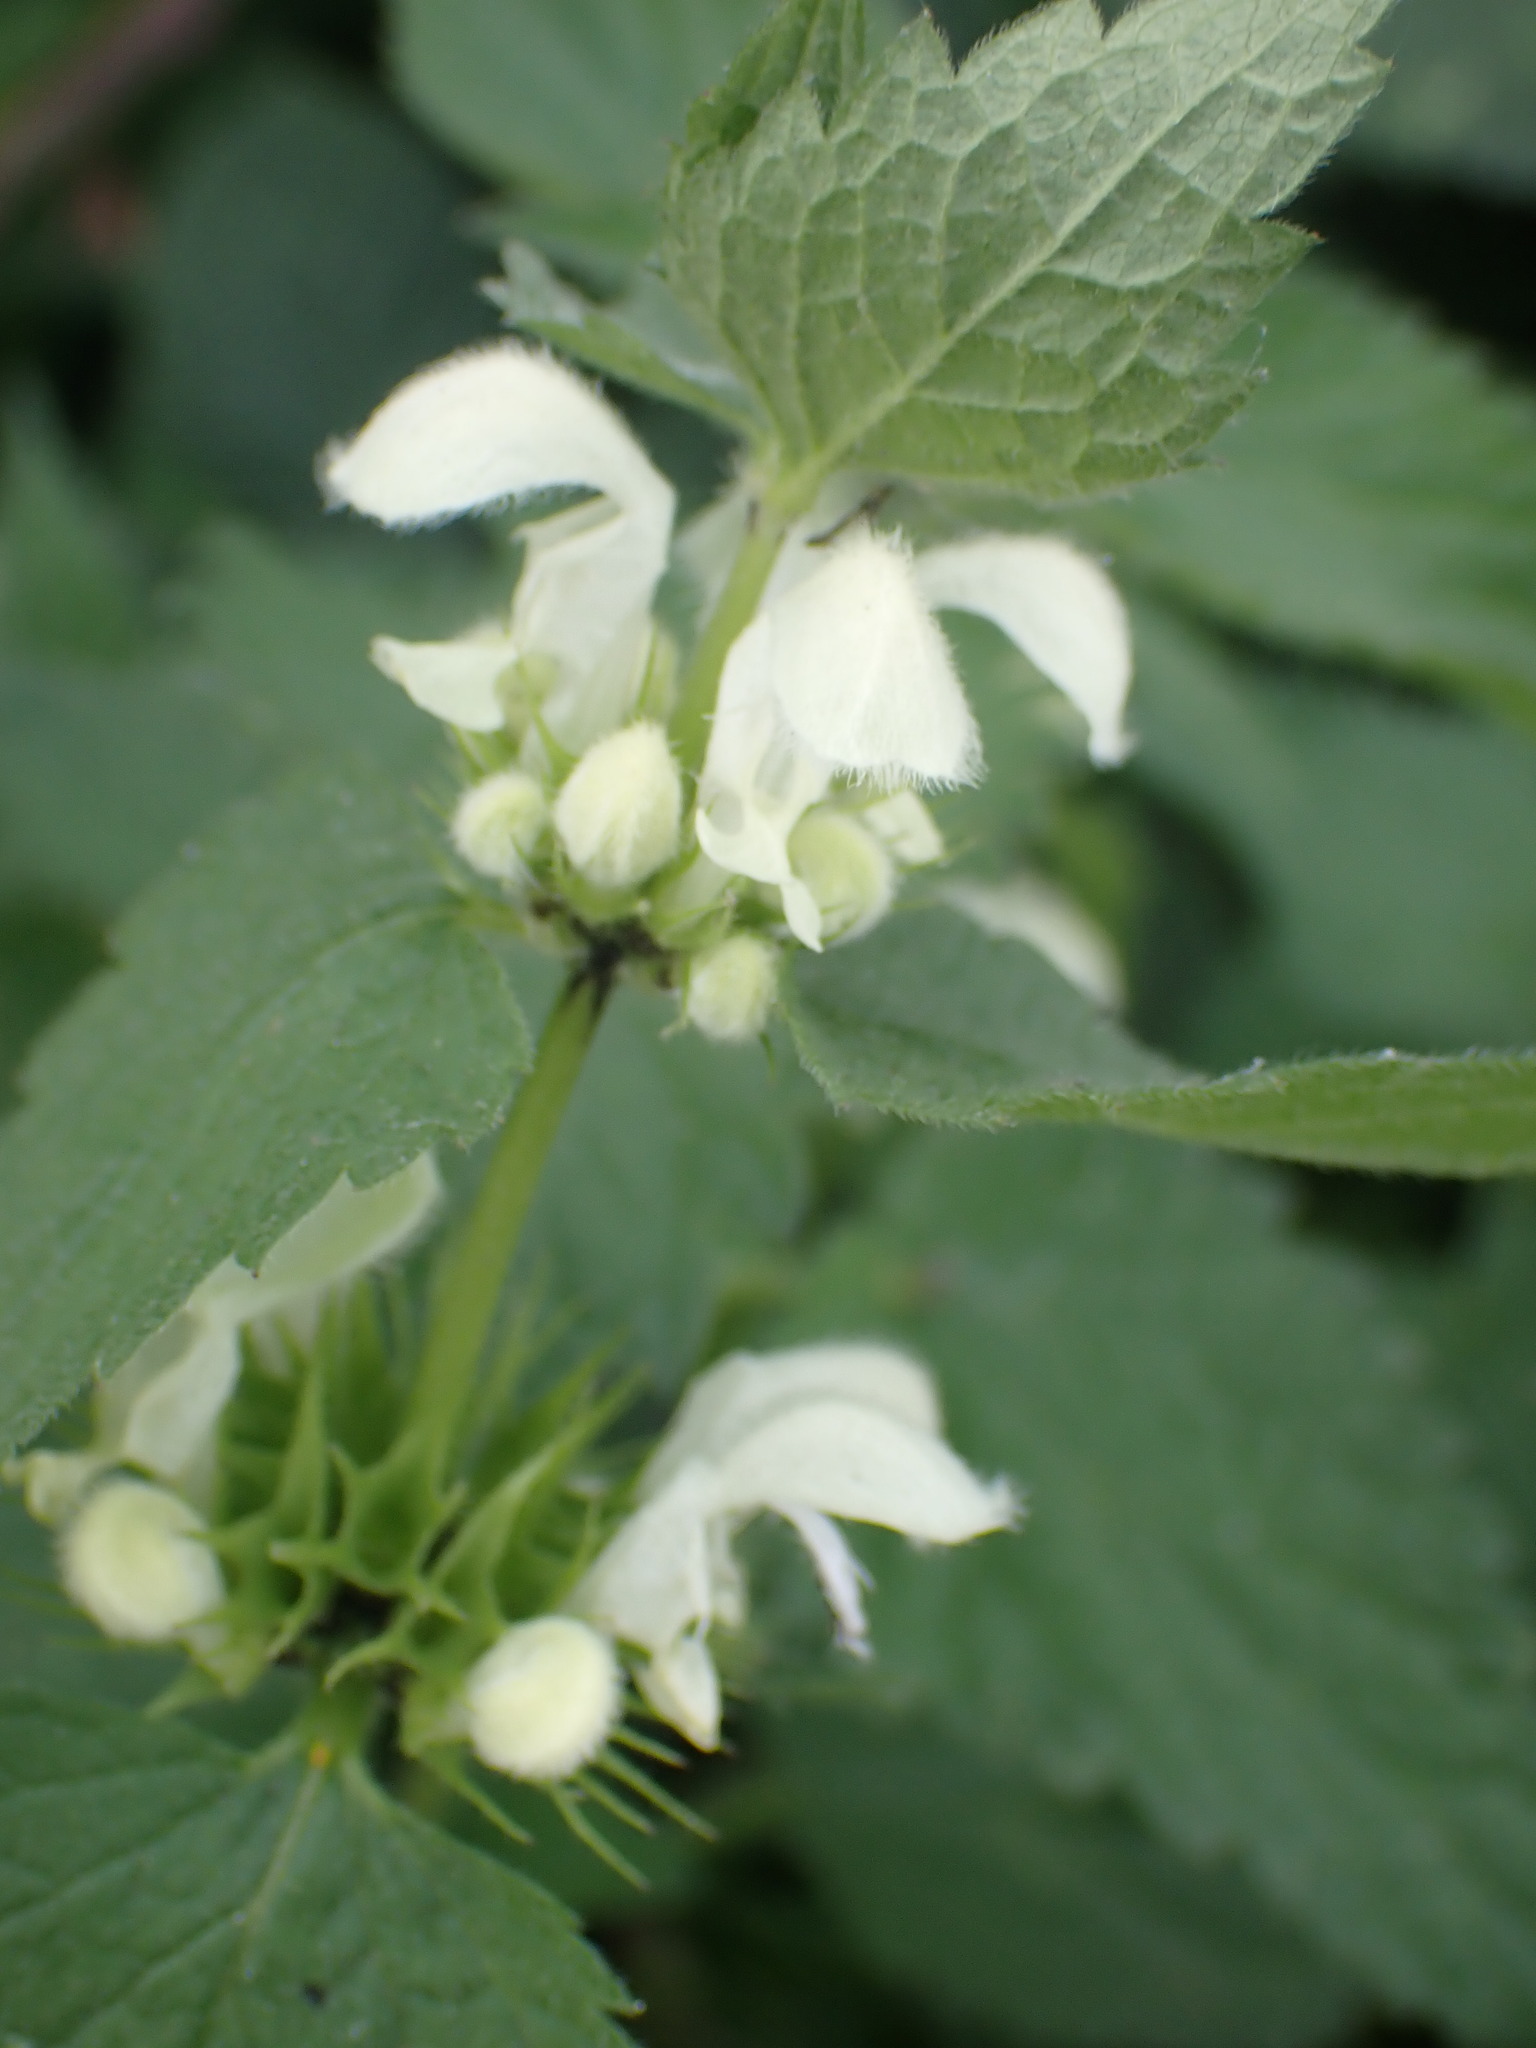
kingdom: Plantae
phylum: Tracheophyta
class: Magnoliopsida
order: Lamiales
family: Lamiaceae
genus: Lamium
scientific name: Lamium album
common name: White dead-nettle
